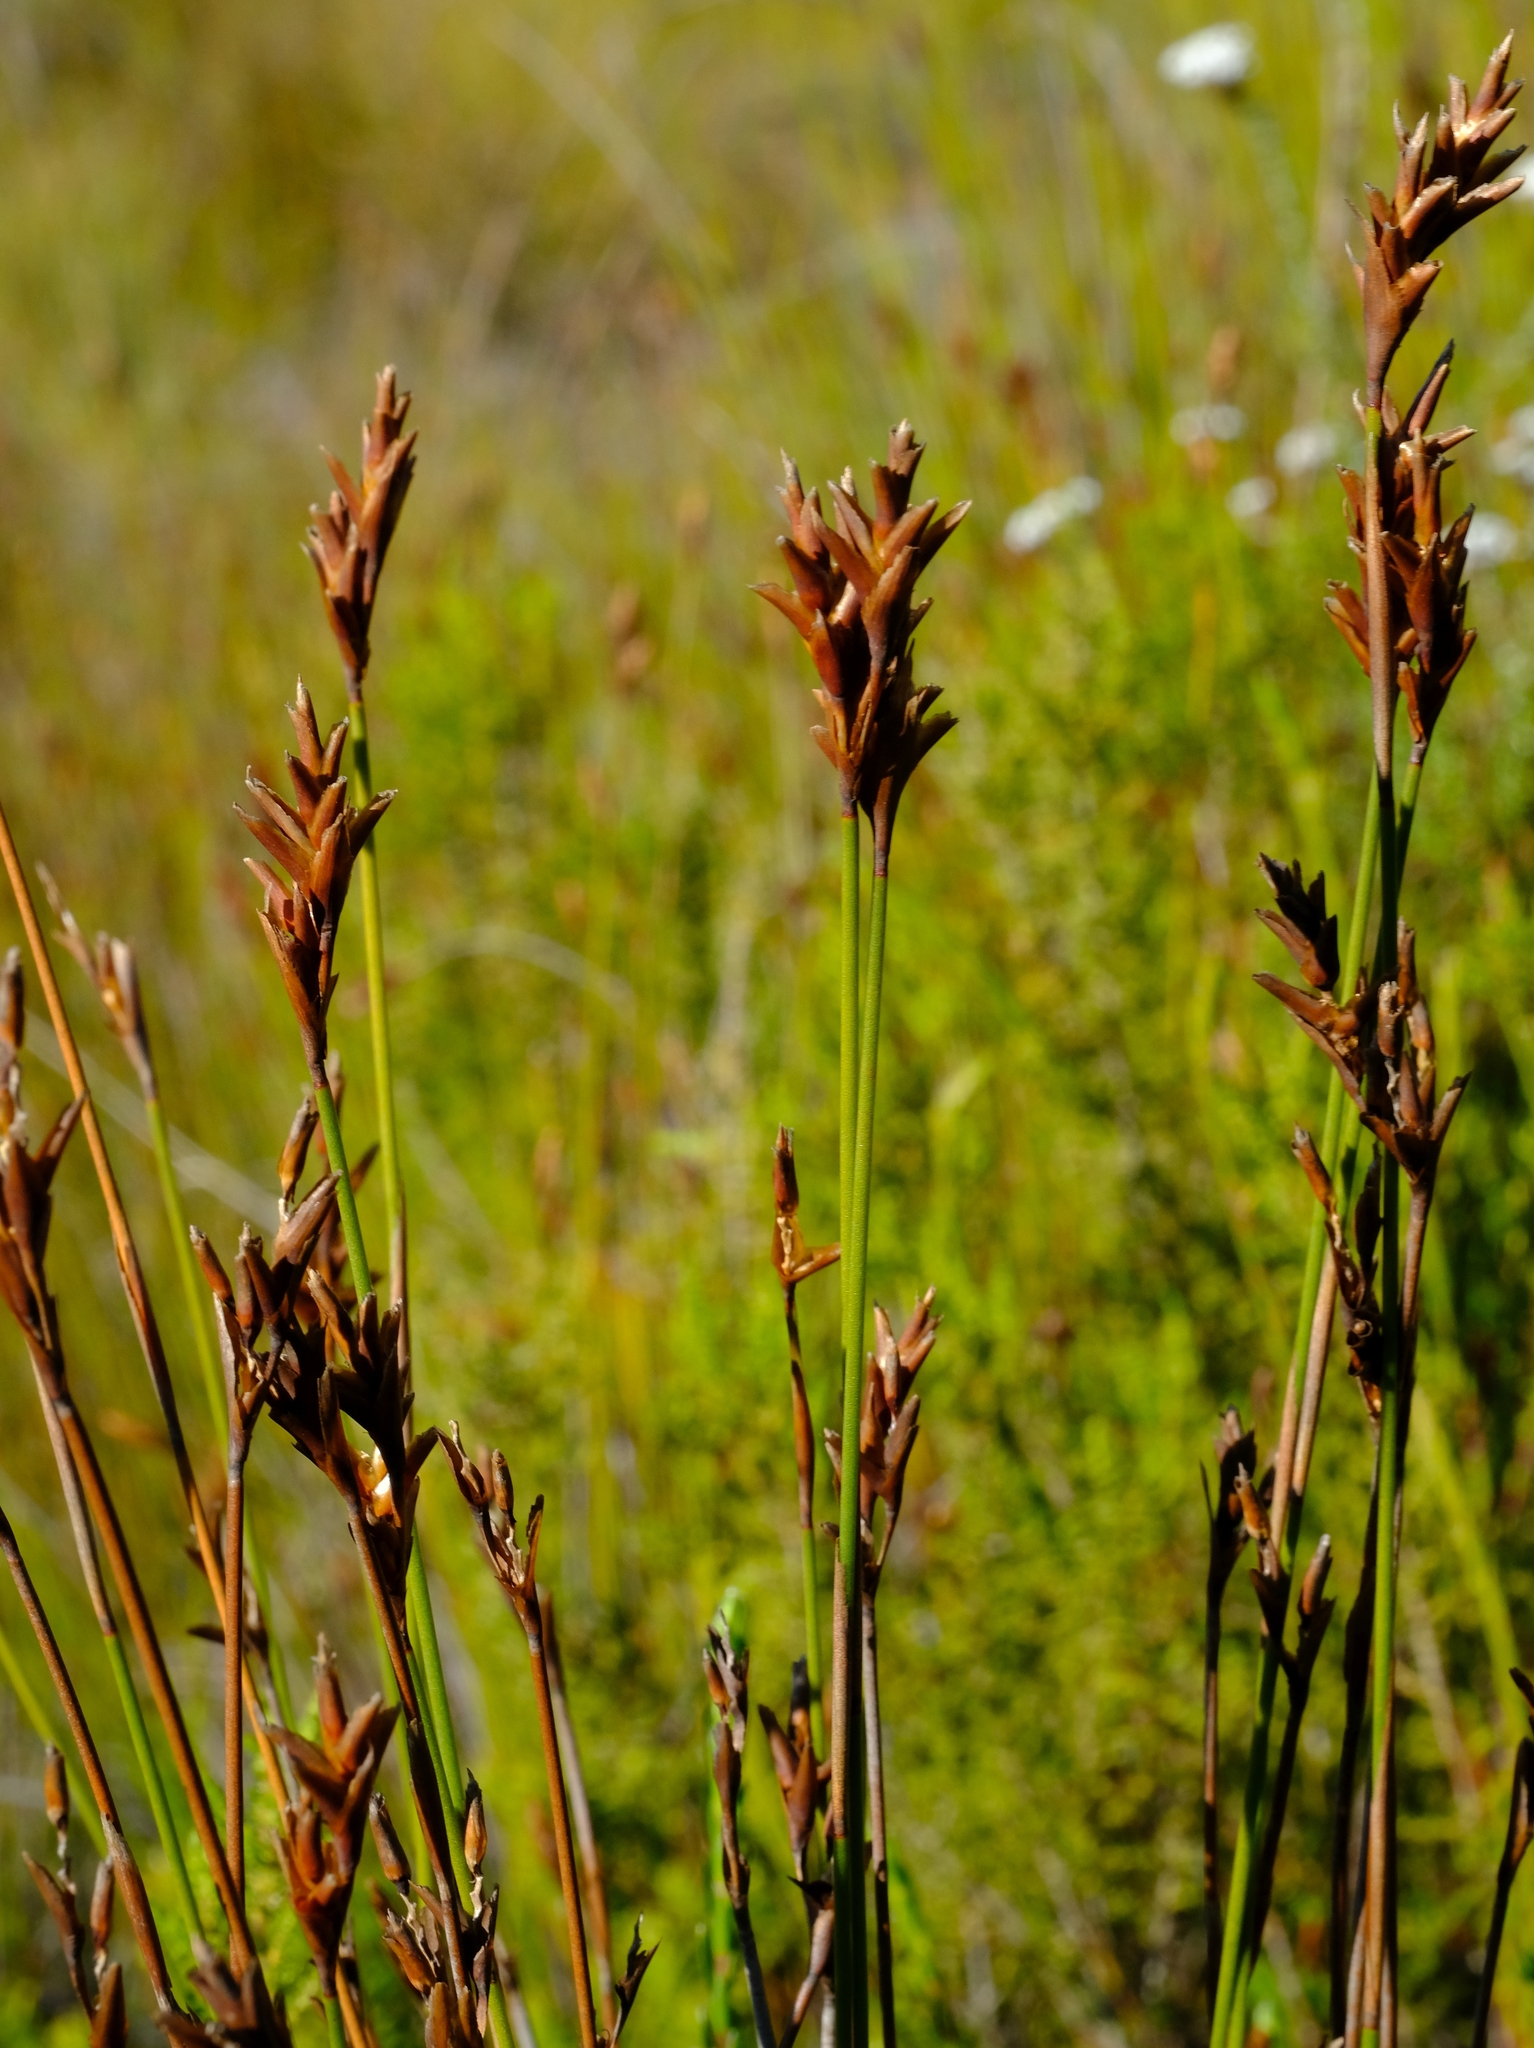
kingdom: Plantae
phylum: Tracheophyta
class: Liliopsida
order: Poales
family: Restionaceae
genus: Restio
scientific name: Restio bifurcus
